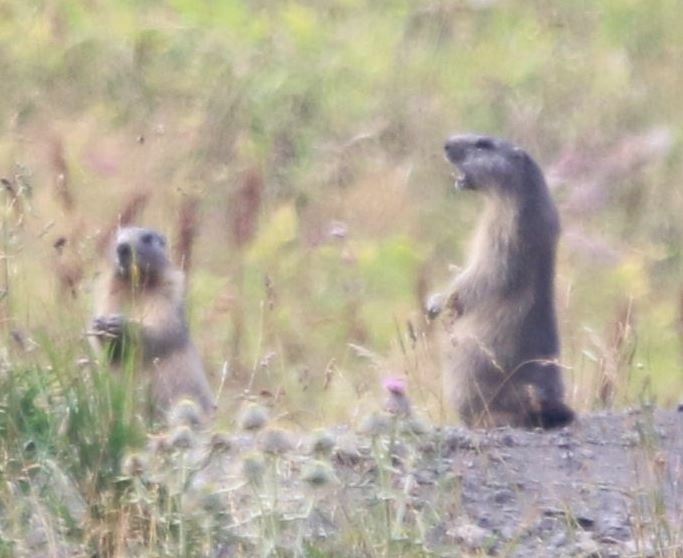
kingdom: Animalia
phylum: Chordata
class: Mammalia
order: Rodentia
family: Sciuridae
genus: Marmota
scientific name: Marmota marmota
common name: Alpine marmot
